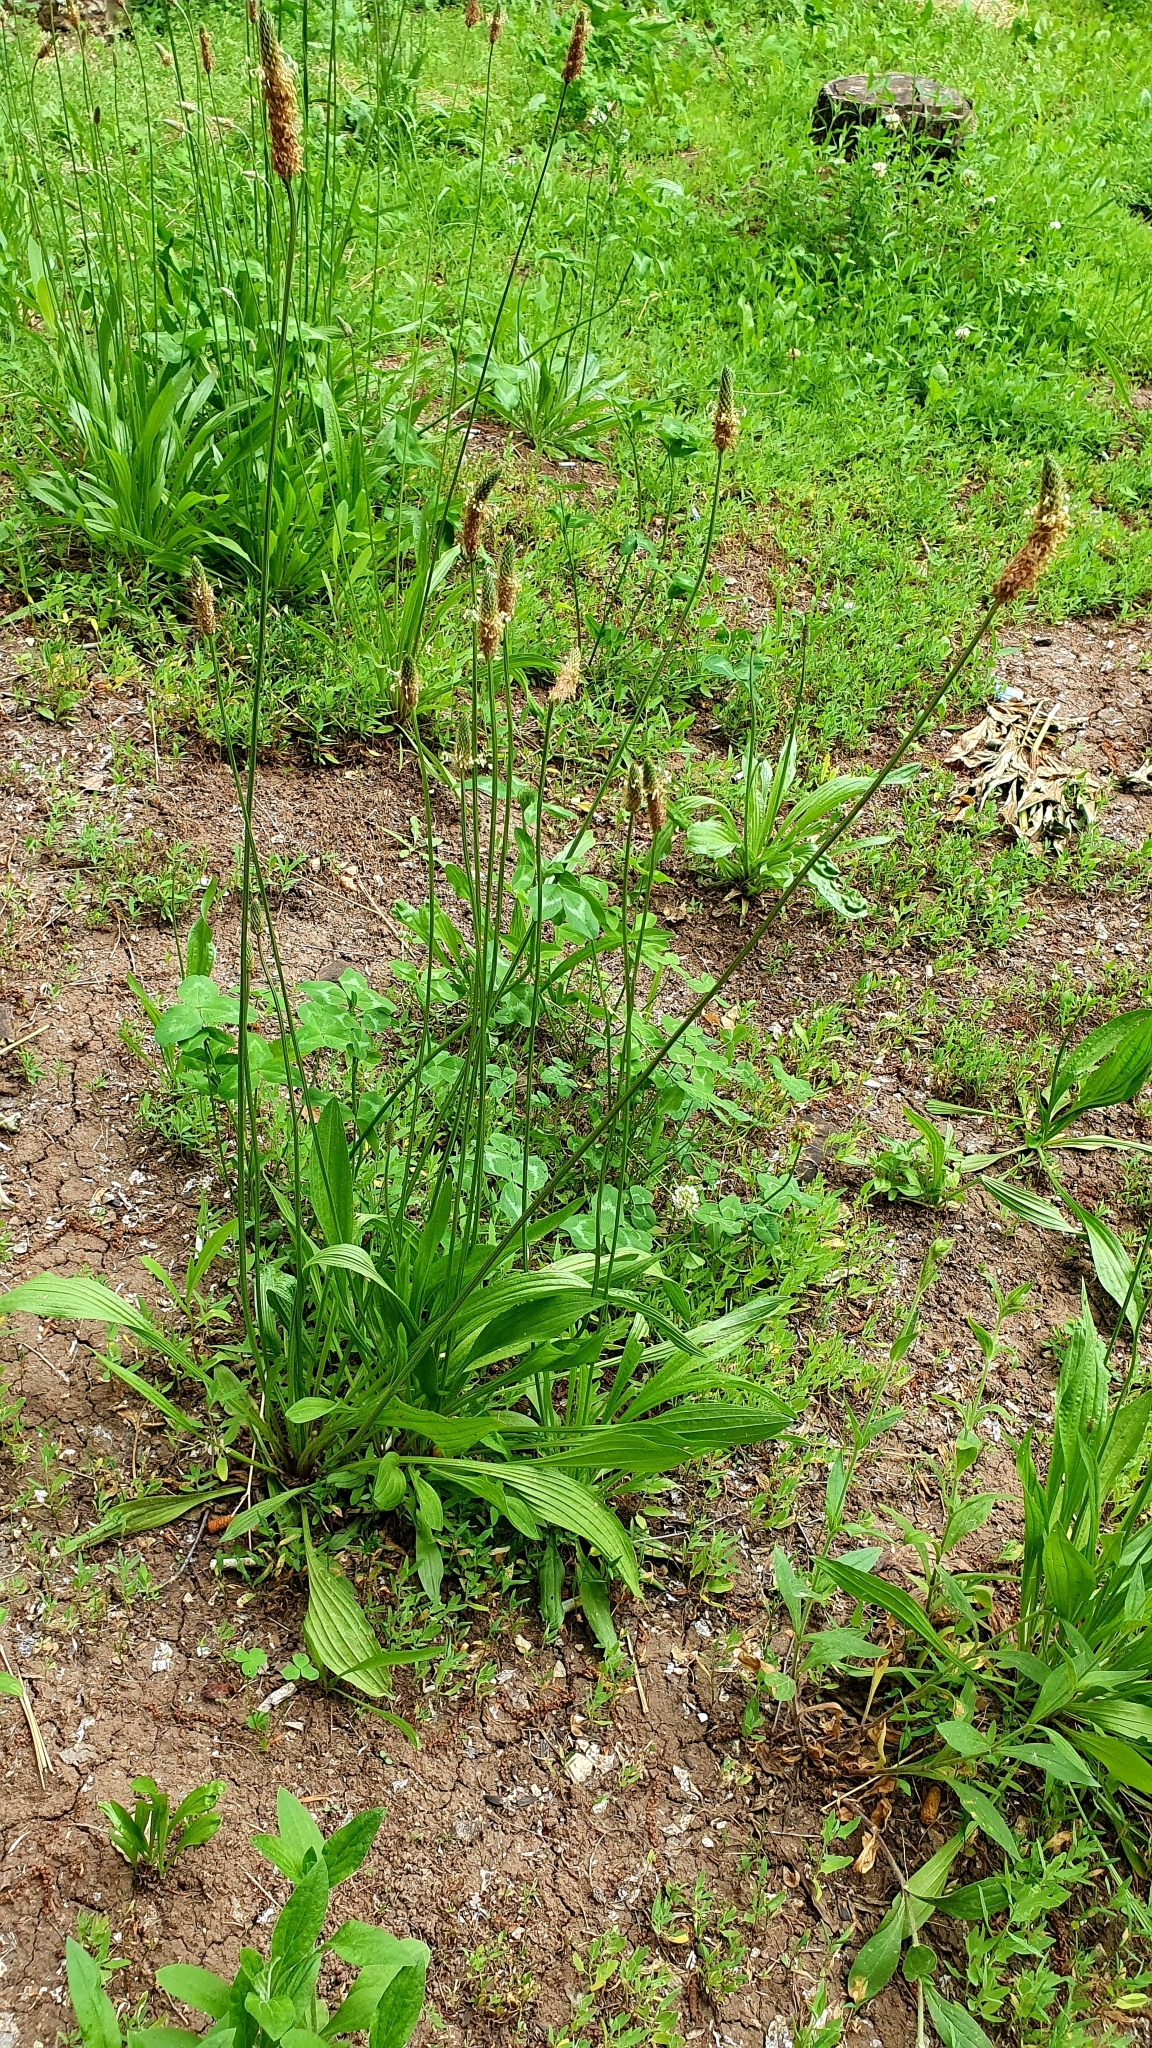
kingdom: Plantae
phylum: Tracheophyta
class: Magnoliopsida
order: Lamiales
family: Plantaginaceae
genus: Plantago
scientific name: Plantago lanceolata
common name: Ribwort plantain
